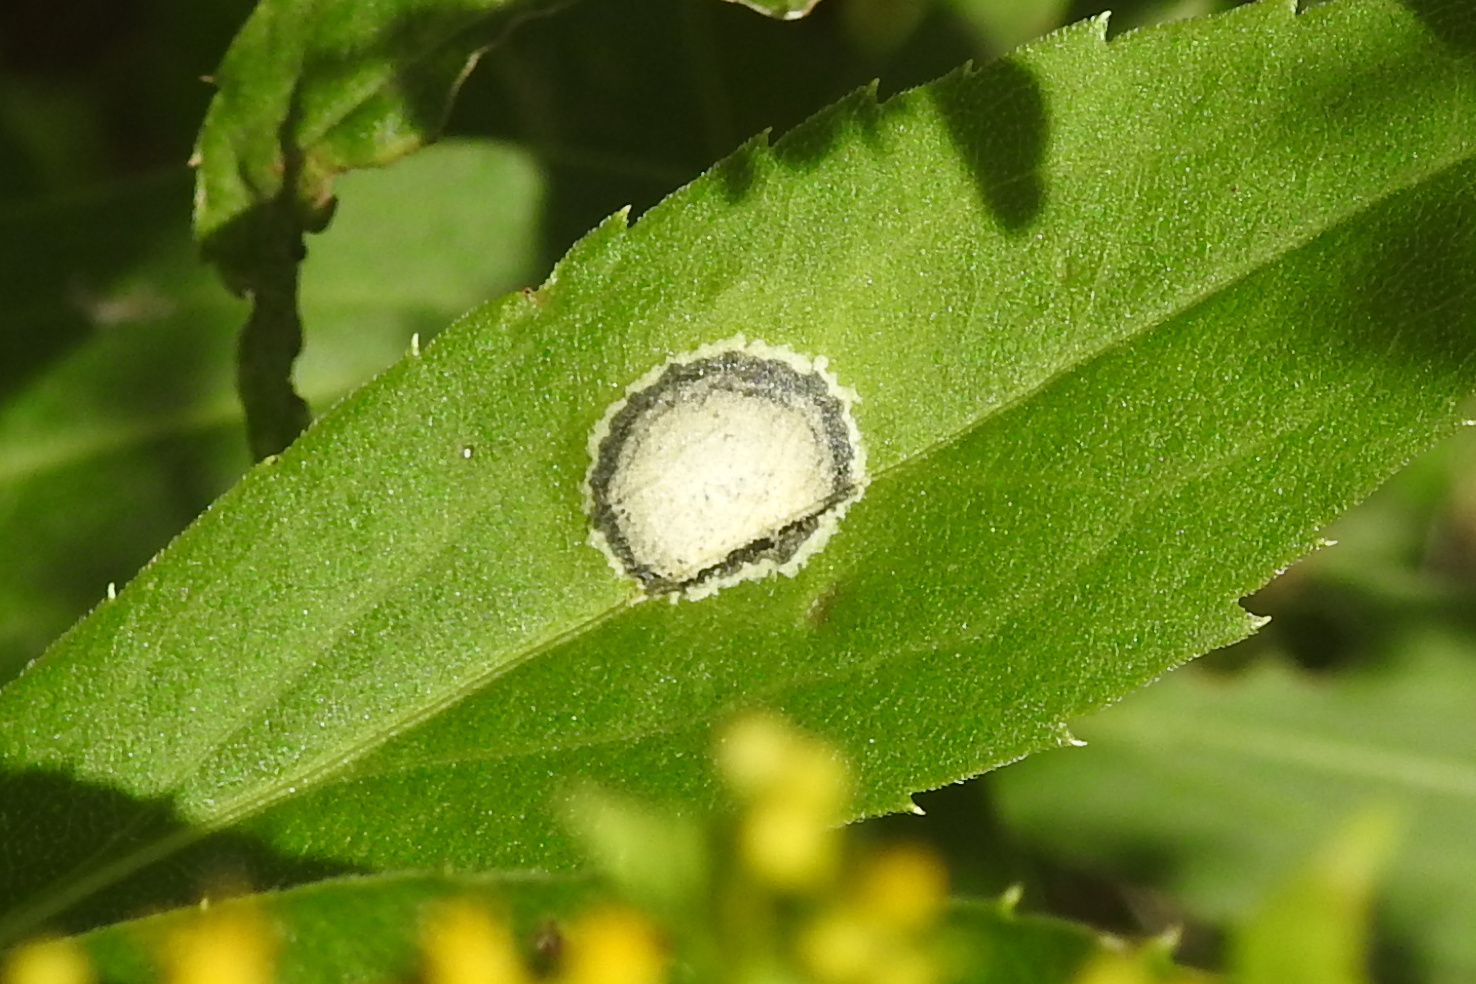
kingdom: Animalia
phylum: Arthropoda
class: Insecta
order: Diptera
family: Cecidomyiidae
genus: Asteromyia
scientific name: Asteromyia carbonifera
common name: Carbonifera goldenrod gall midge
